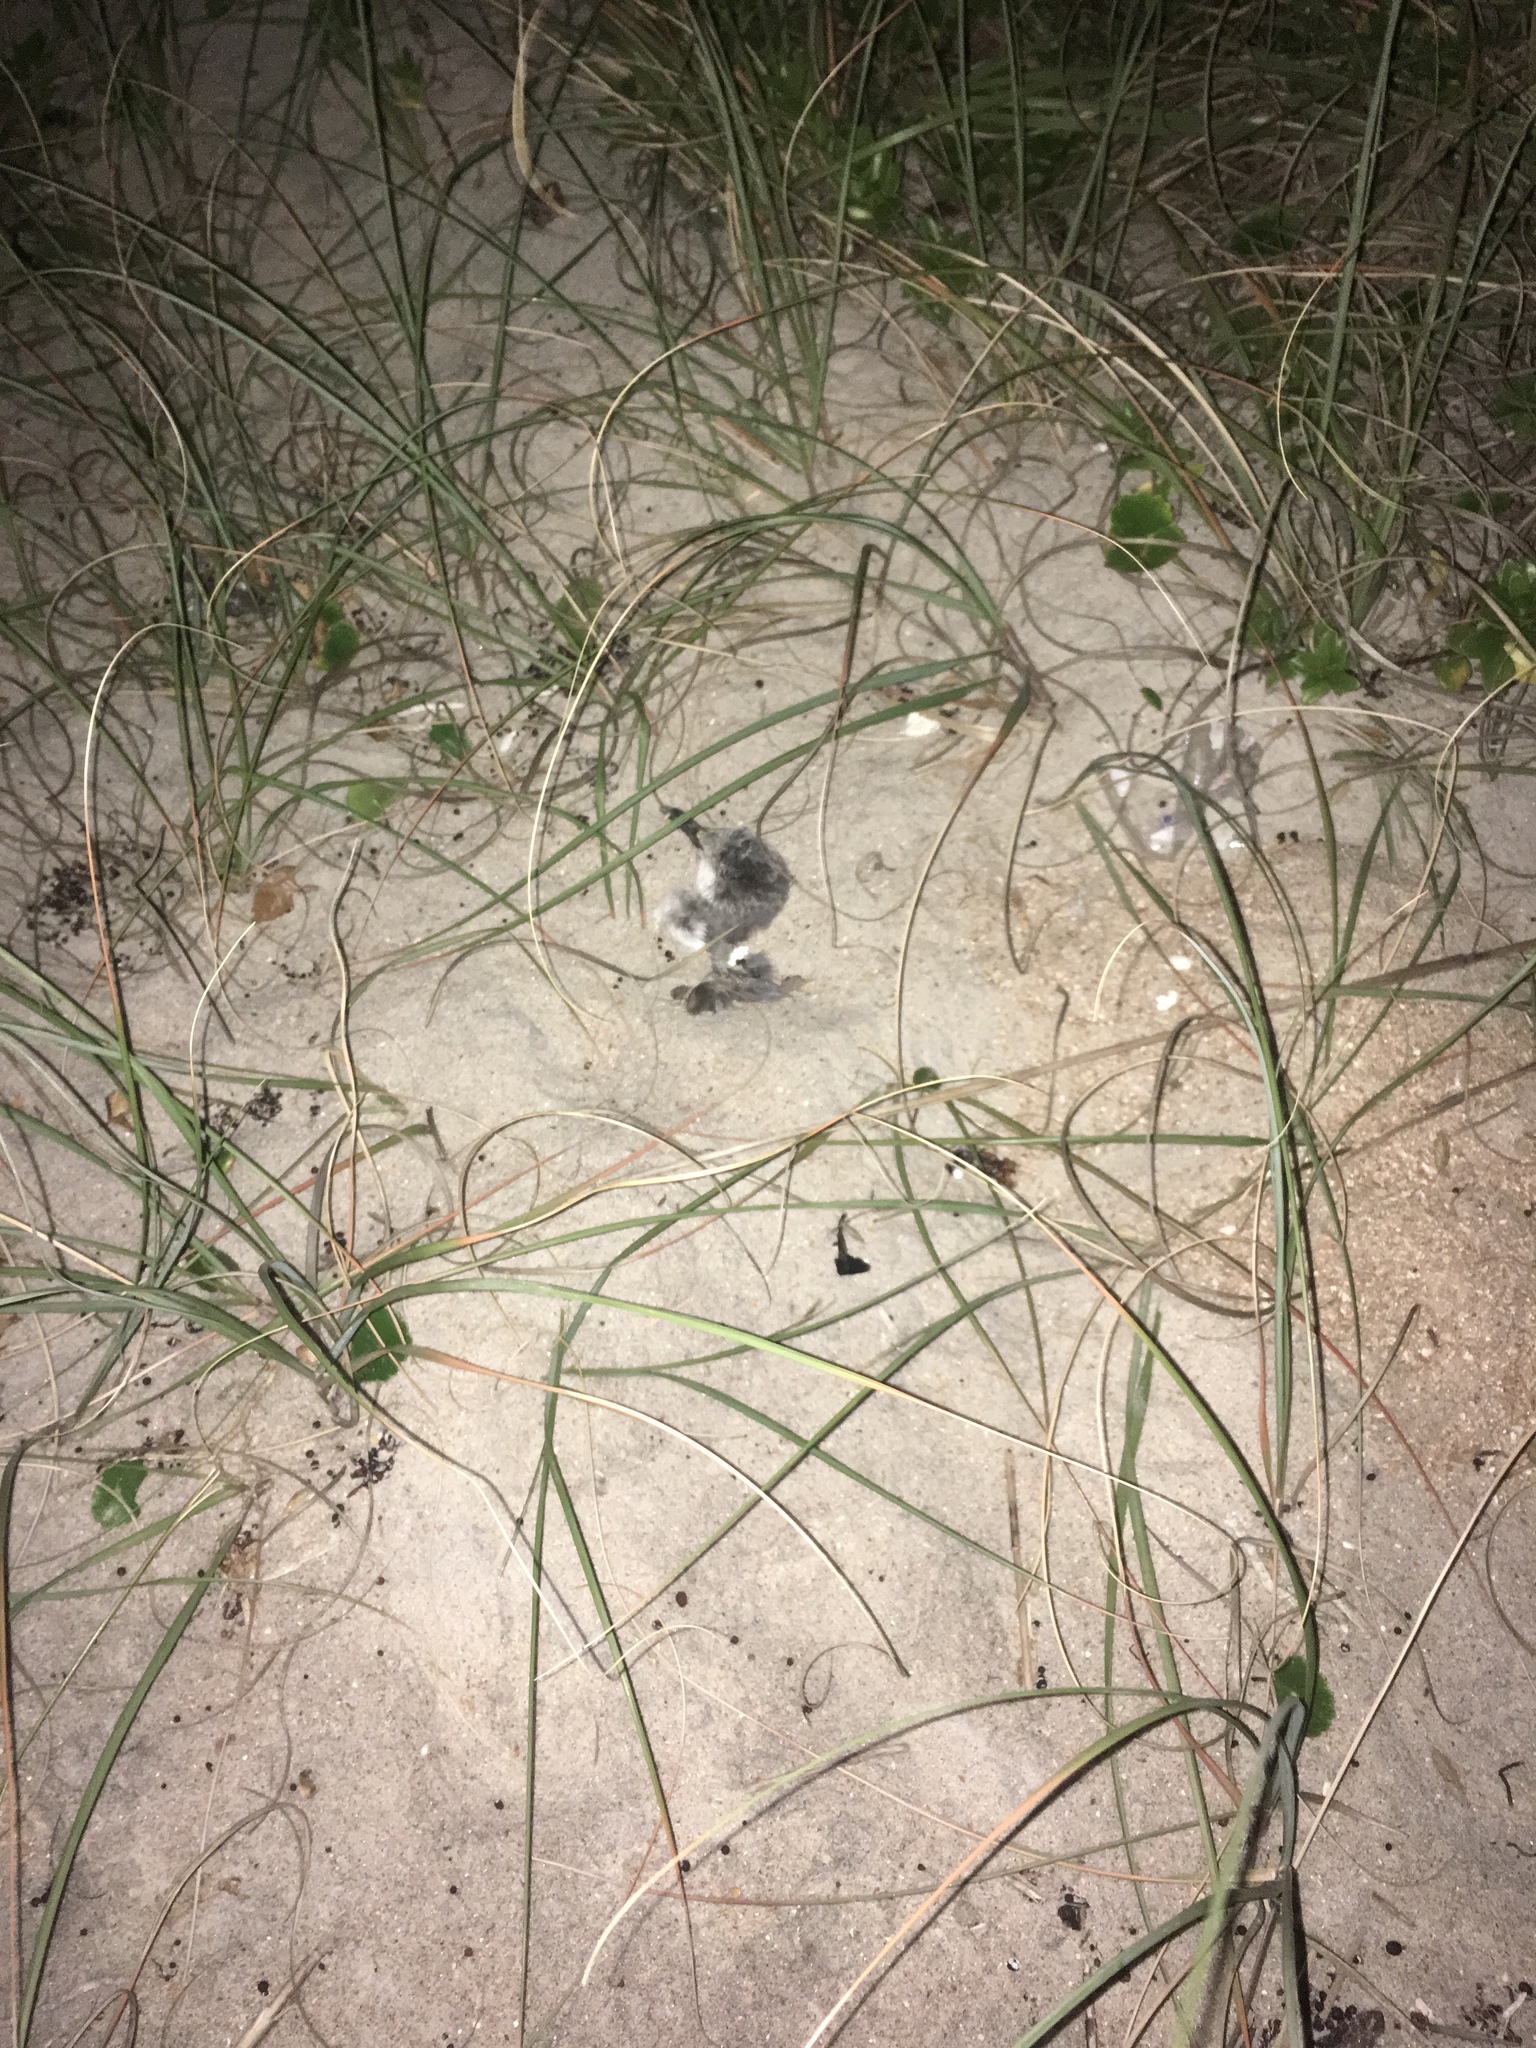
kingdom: Animalia
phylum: Chordata
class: Aves
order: Charadriiformes
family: Laridae
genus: Leucophaeus
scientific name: Leucophaeus atricilla
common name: Laughing gull
